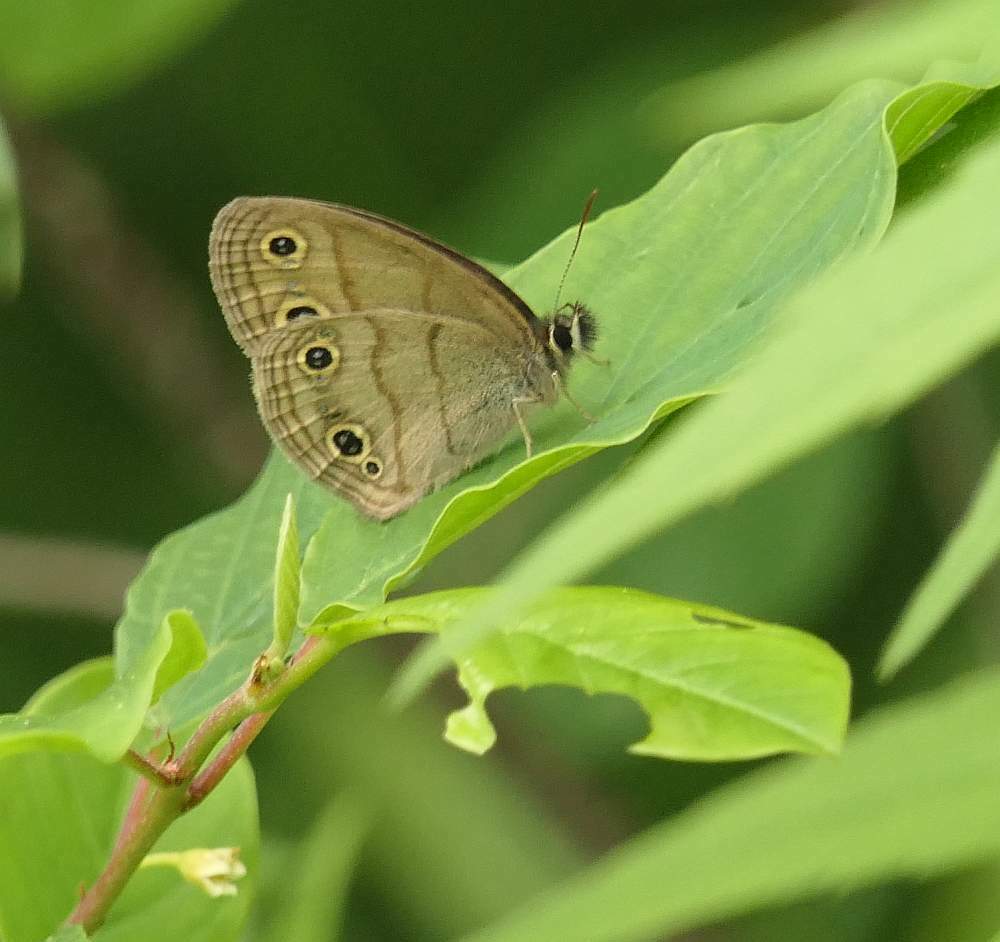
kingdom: Animalia
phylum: Arthropoda
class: Insecta
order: Lepidoptera
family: Nymphalidae
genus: Euptychia
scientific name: Euptychia cymela
